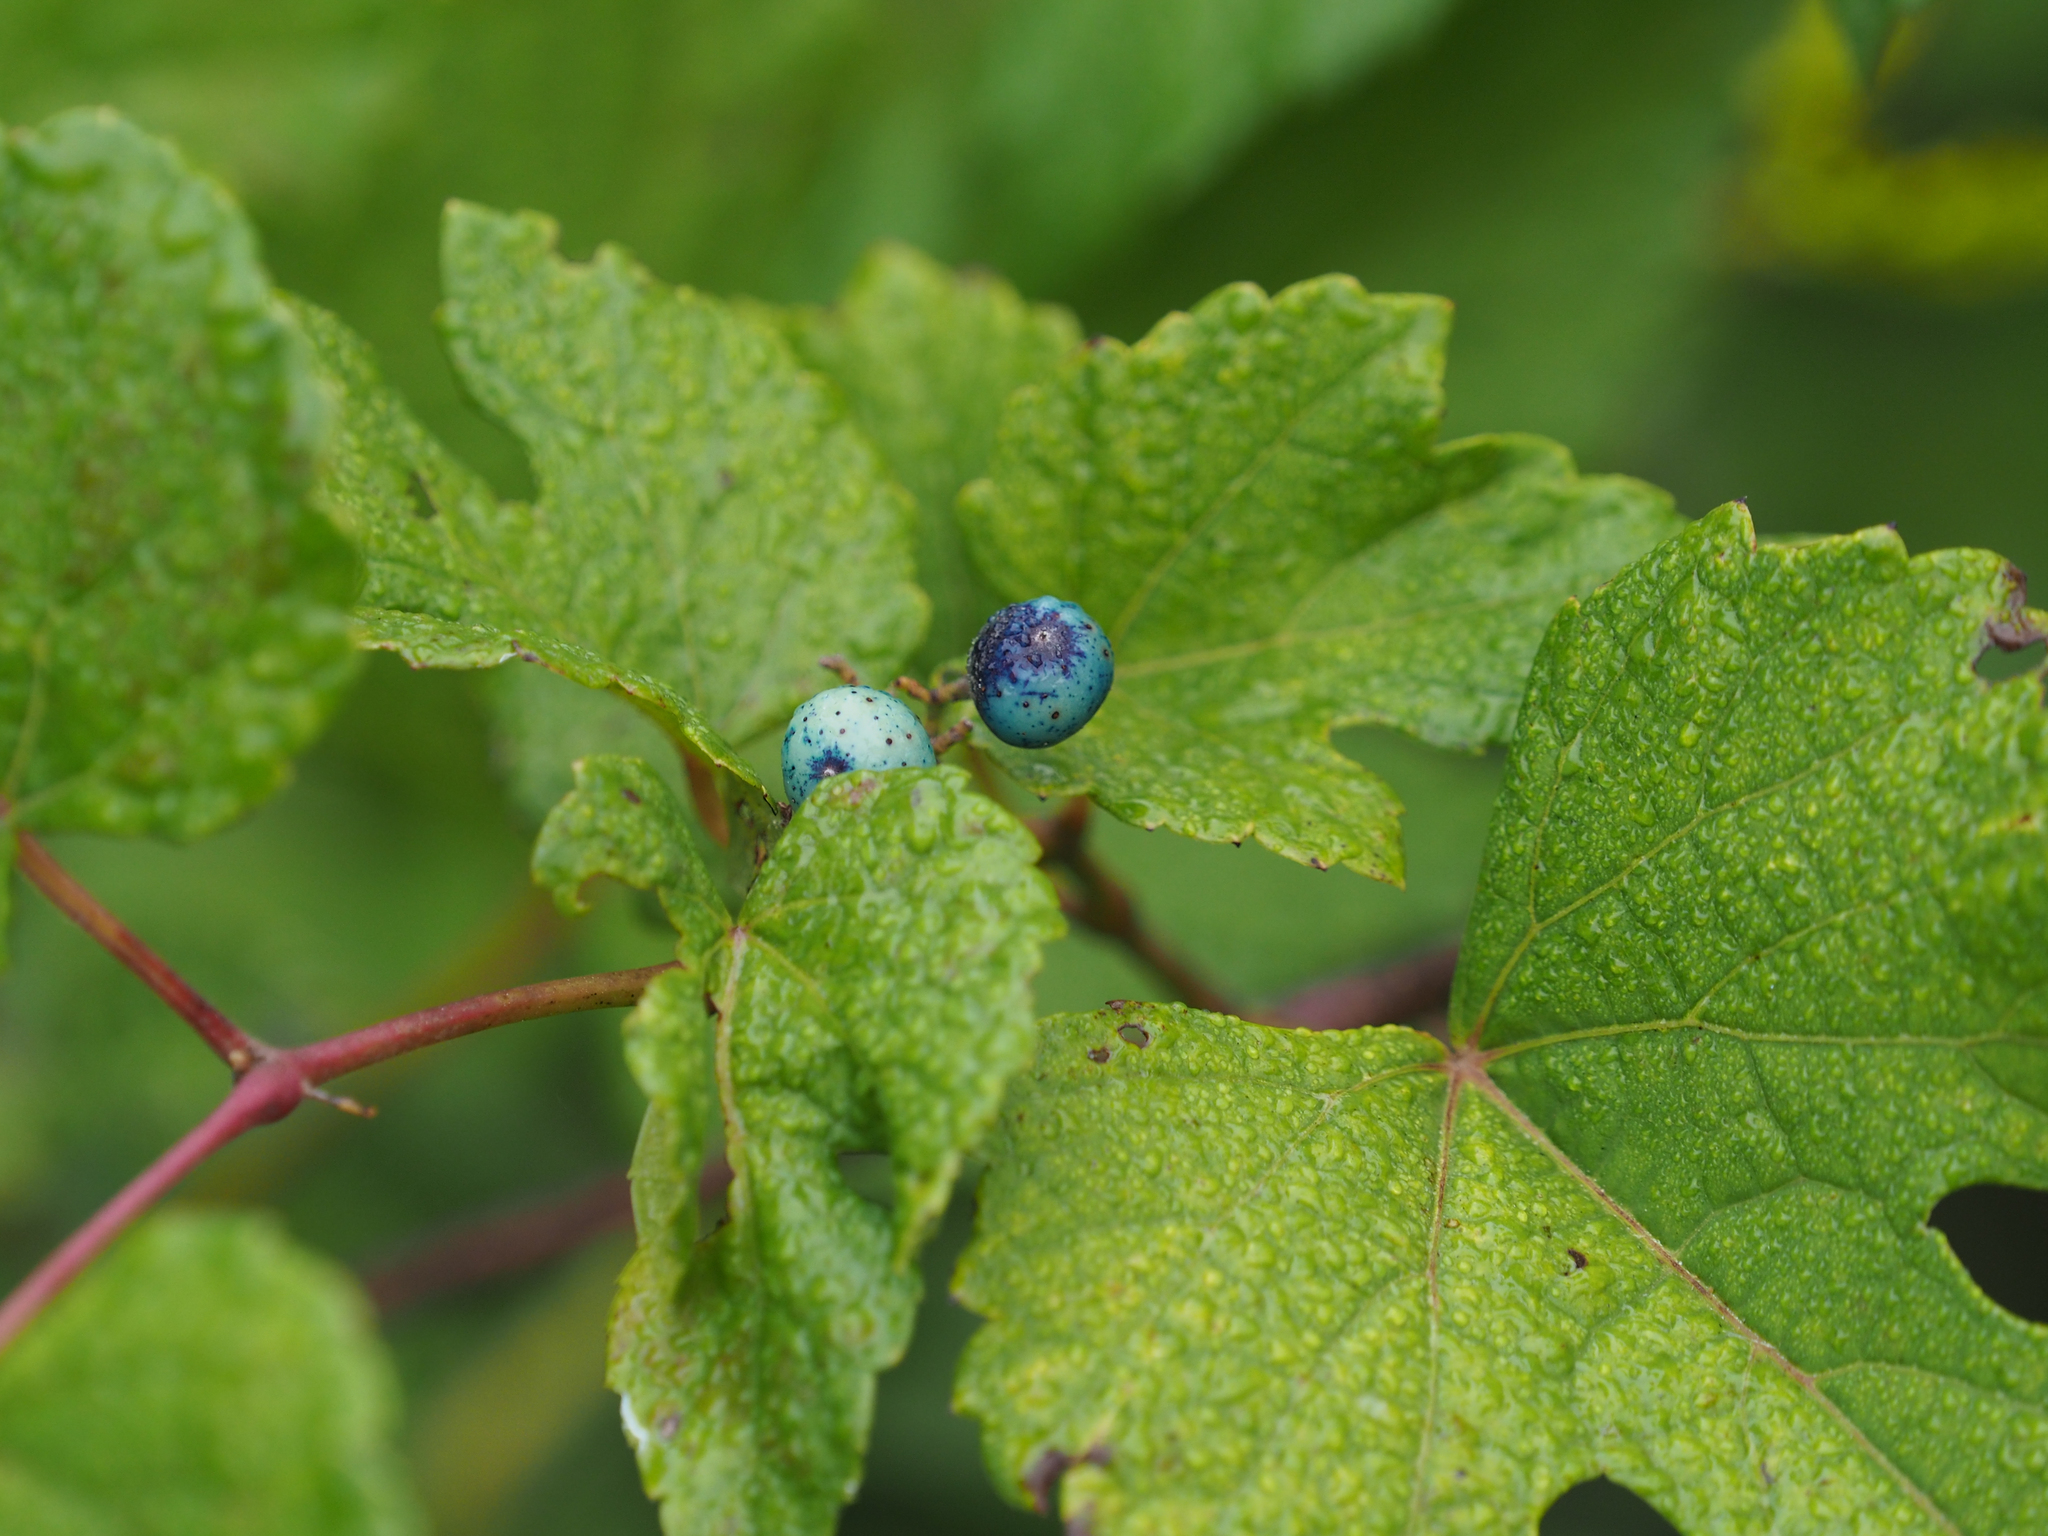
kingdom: Plantae
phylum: Tracheophyta
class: Magnoliopsida
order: Vitales
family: Vitaceae
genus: Ampelopsis
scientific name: Ampelopsis glandulosa
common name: Amur peppervine
